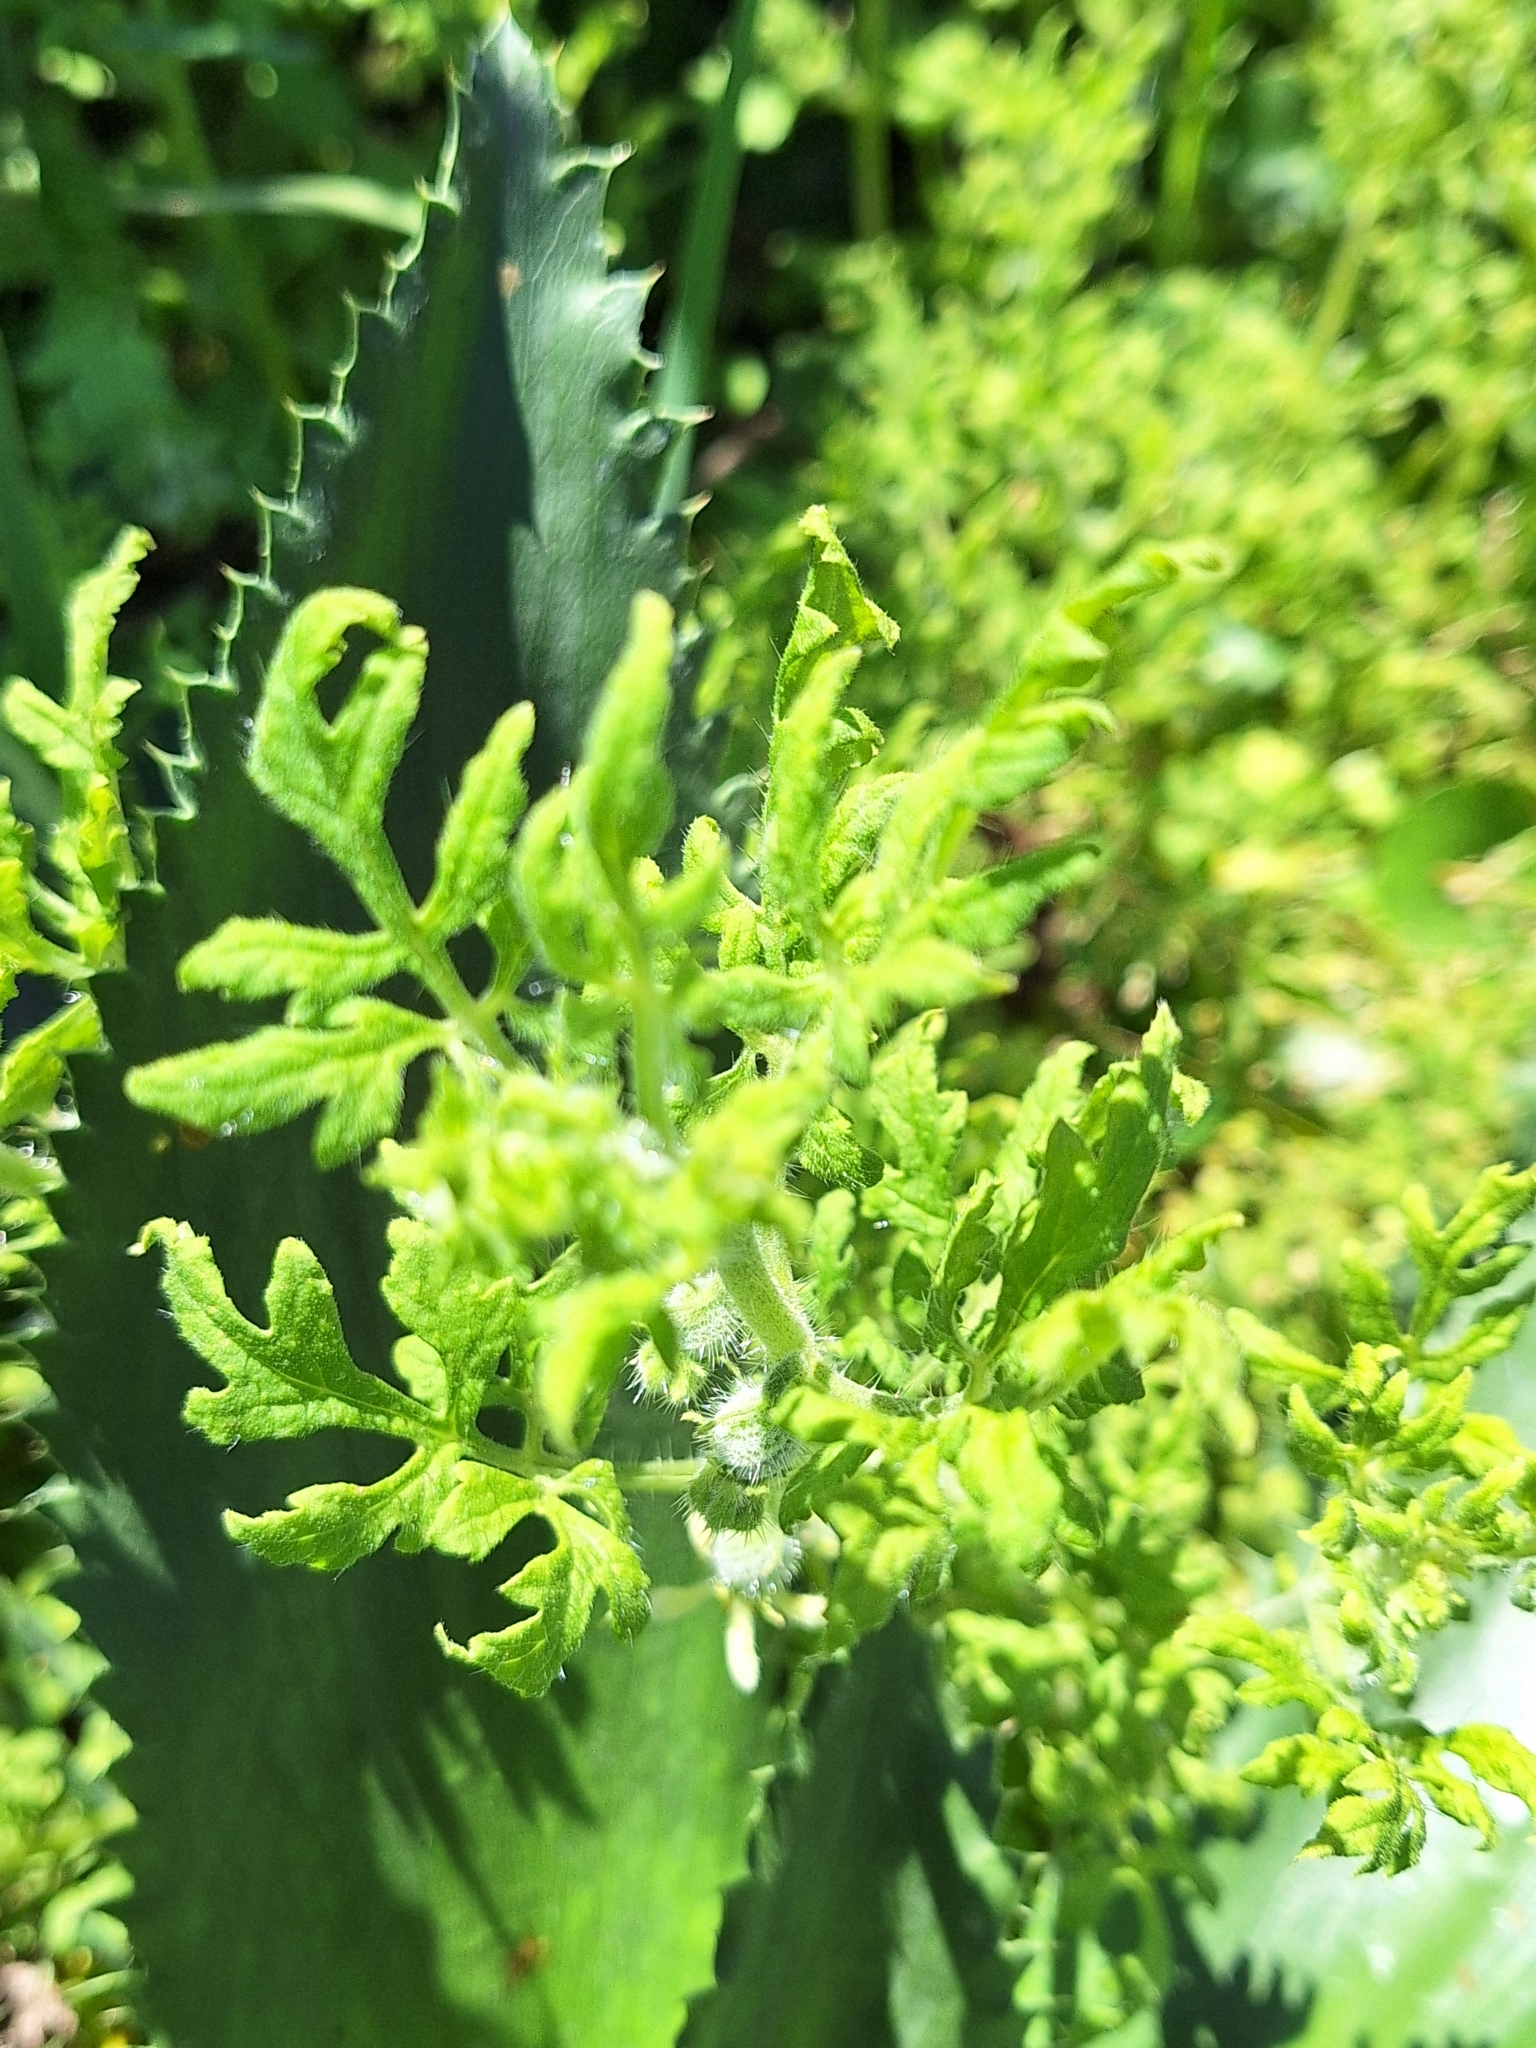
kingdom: Plantae
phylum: Tracheophyta
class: Magnoliopsida
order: Cornales
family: Loasaceae
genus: Blumenbachia
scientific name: Blumenbachia latifolia
